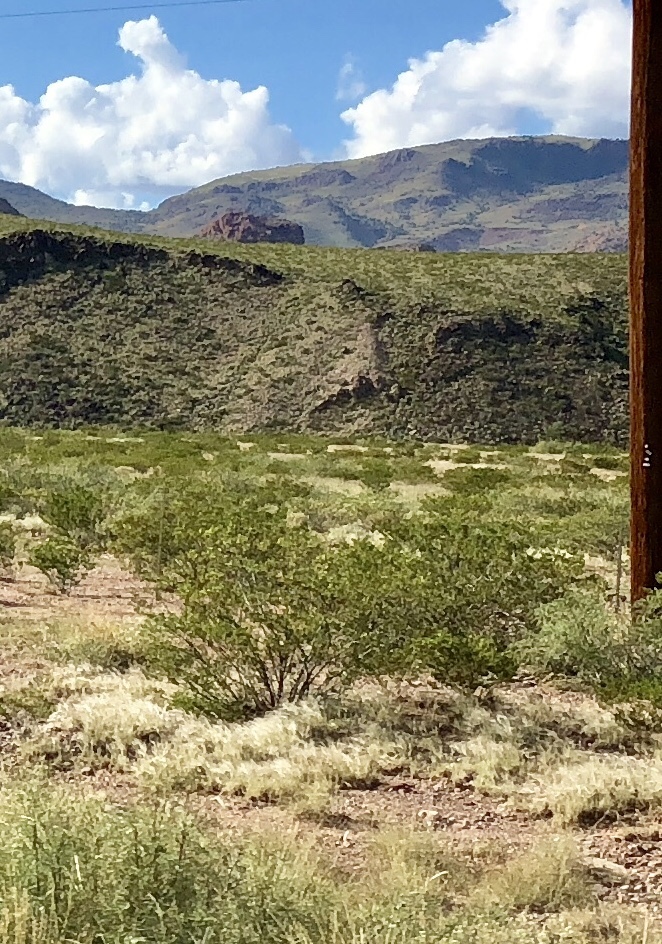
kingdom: Plantae
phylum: Tracheophyta
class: Magnoliopsida
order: Zygophyllales
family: Zygophyllaceae
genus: Larrea
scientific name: Larrea tridentata
